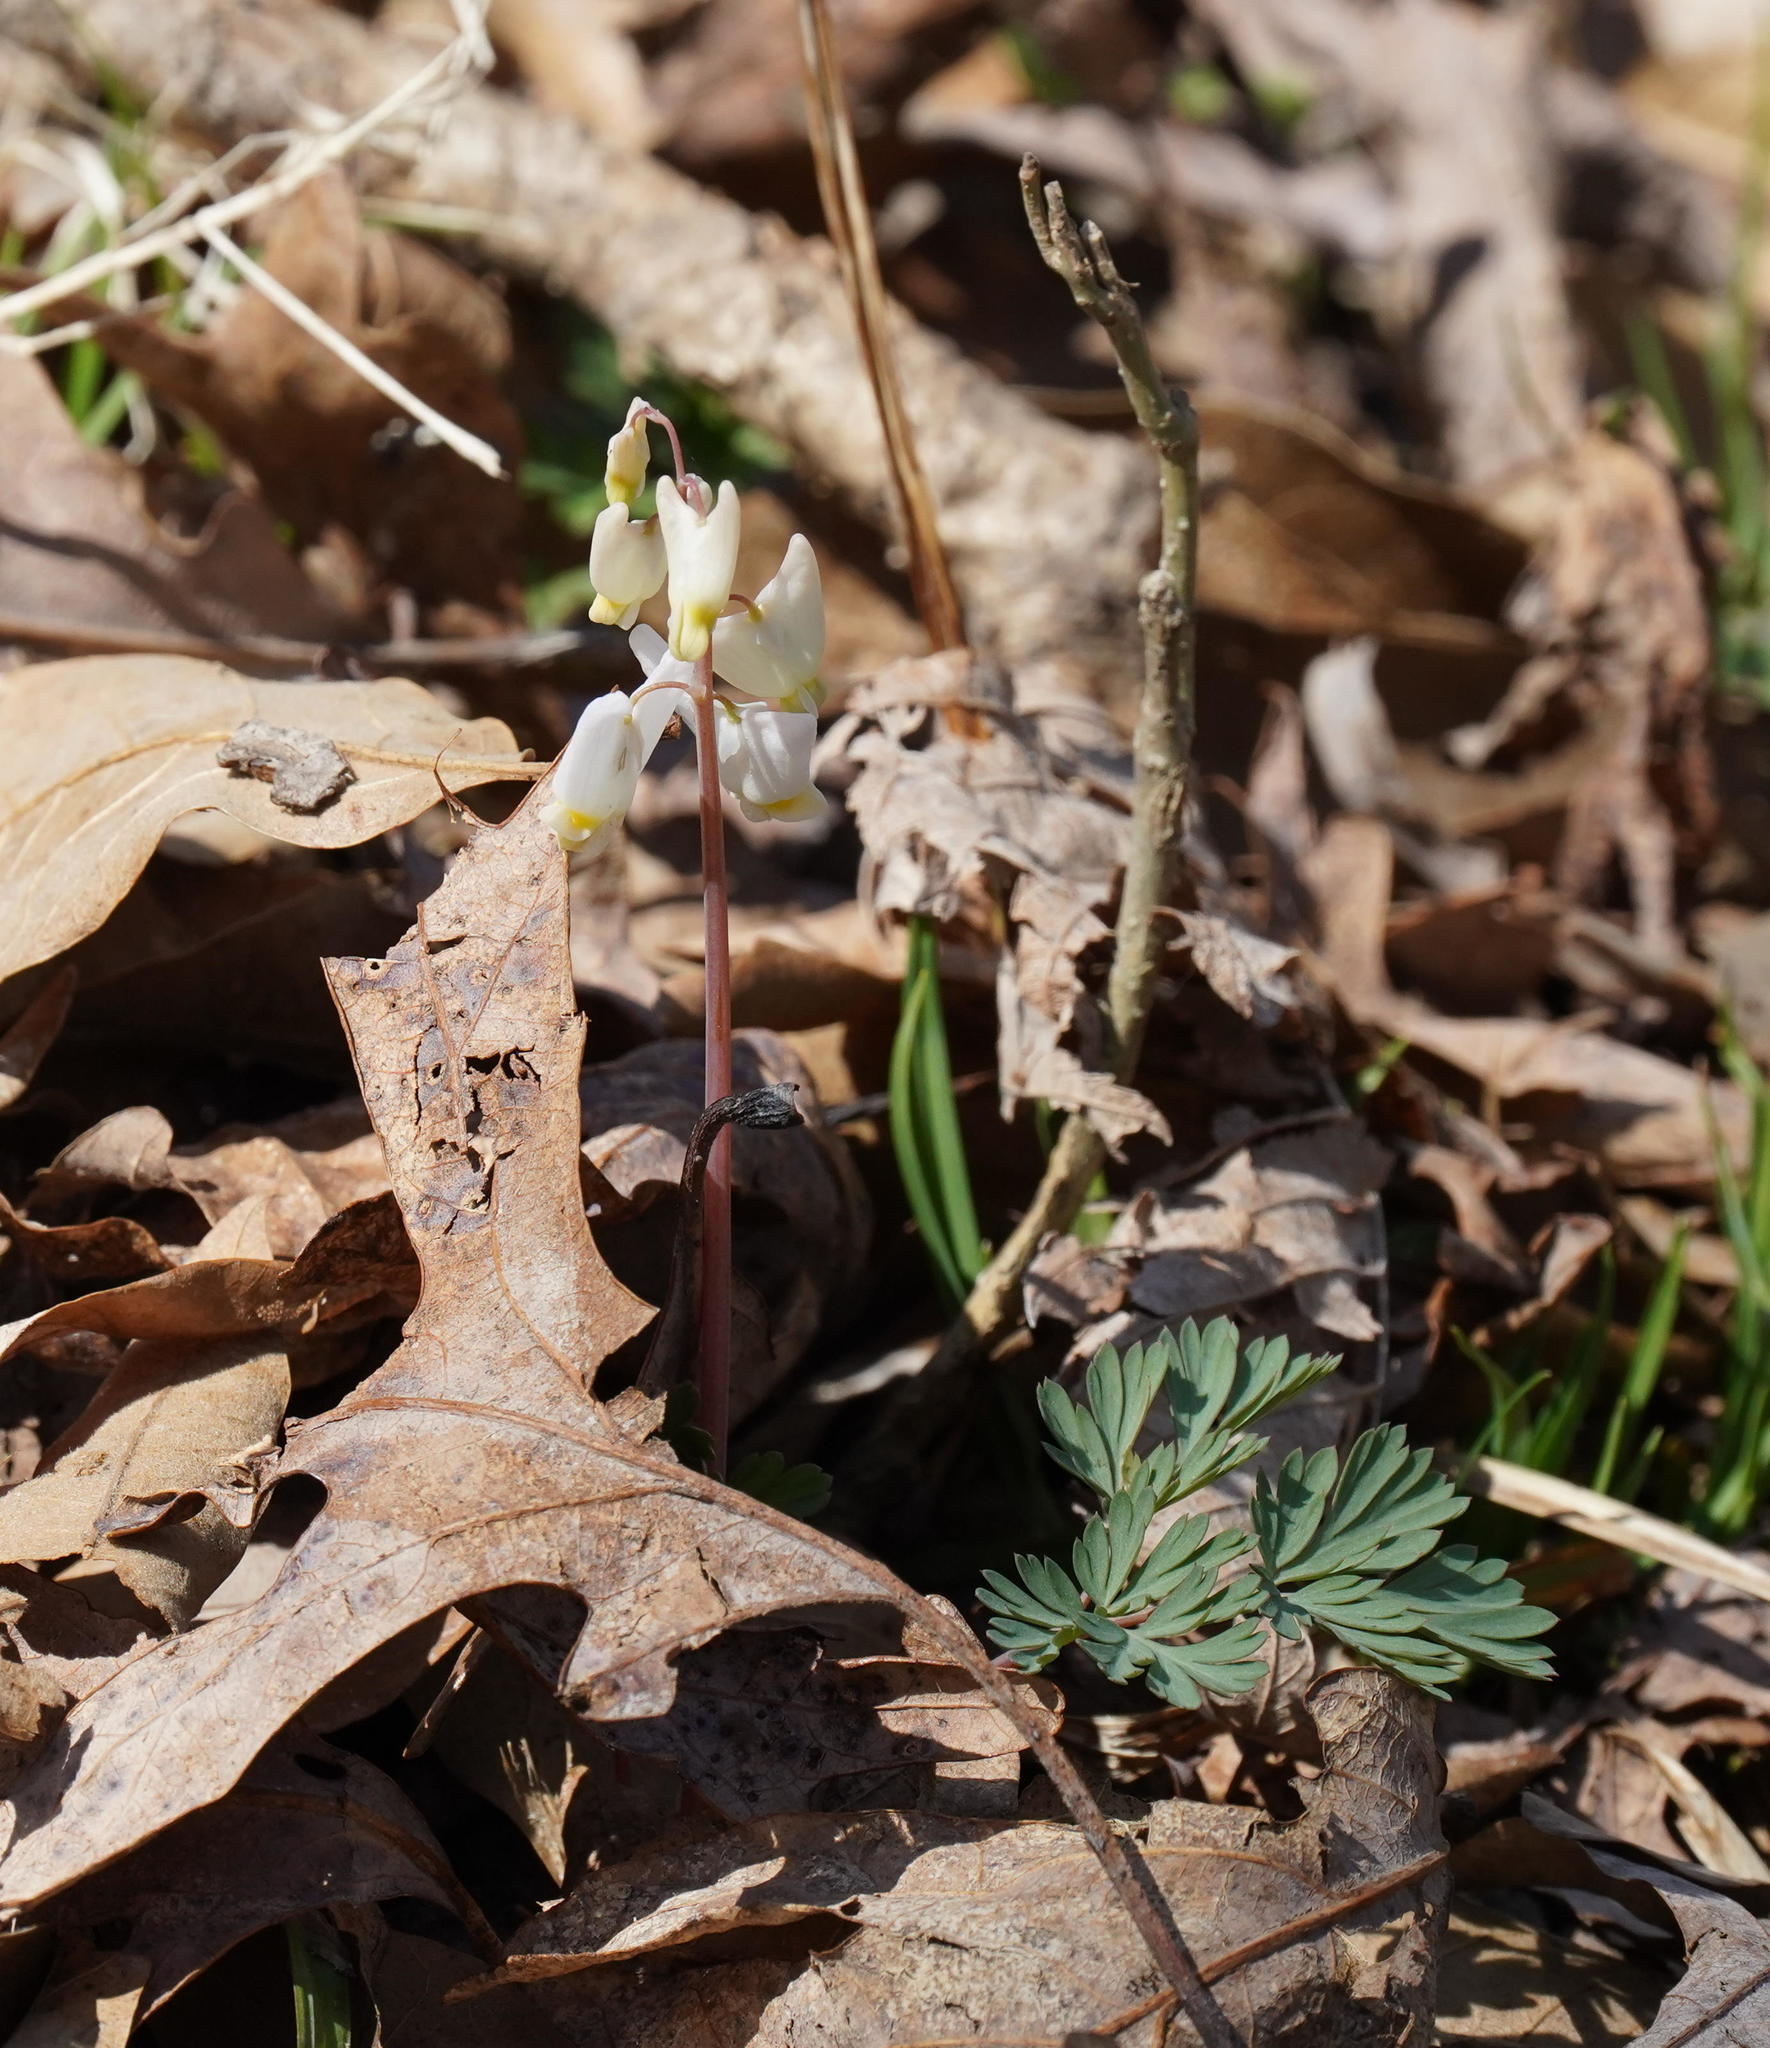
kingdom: Plantae
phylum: Tracheophyta
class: Magnoliopsida
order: Ranunculales
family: Papaveraceae
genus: Dicentra
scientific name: Dicentra cucullaria
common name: Dutchman's breeches
